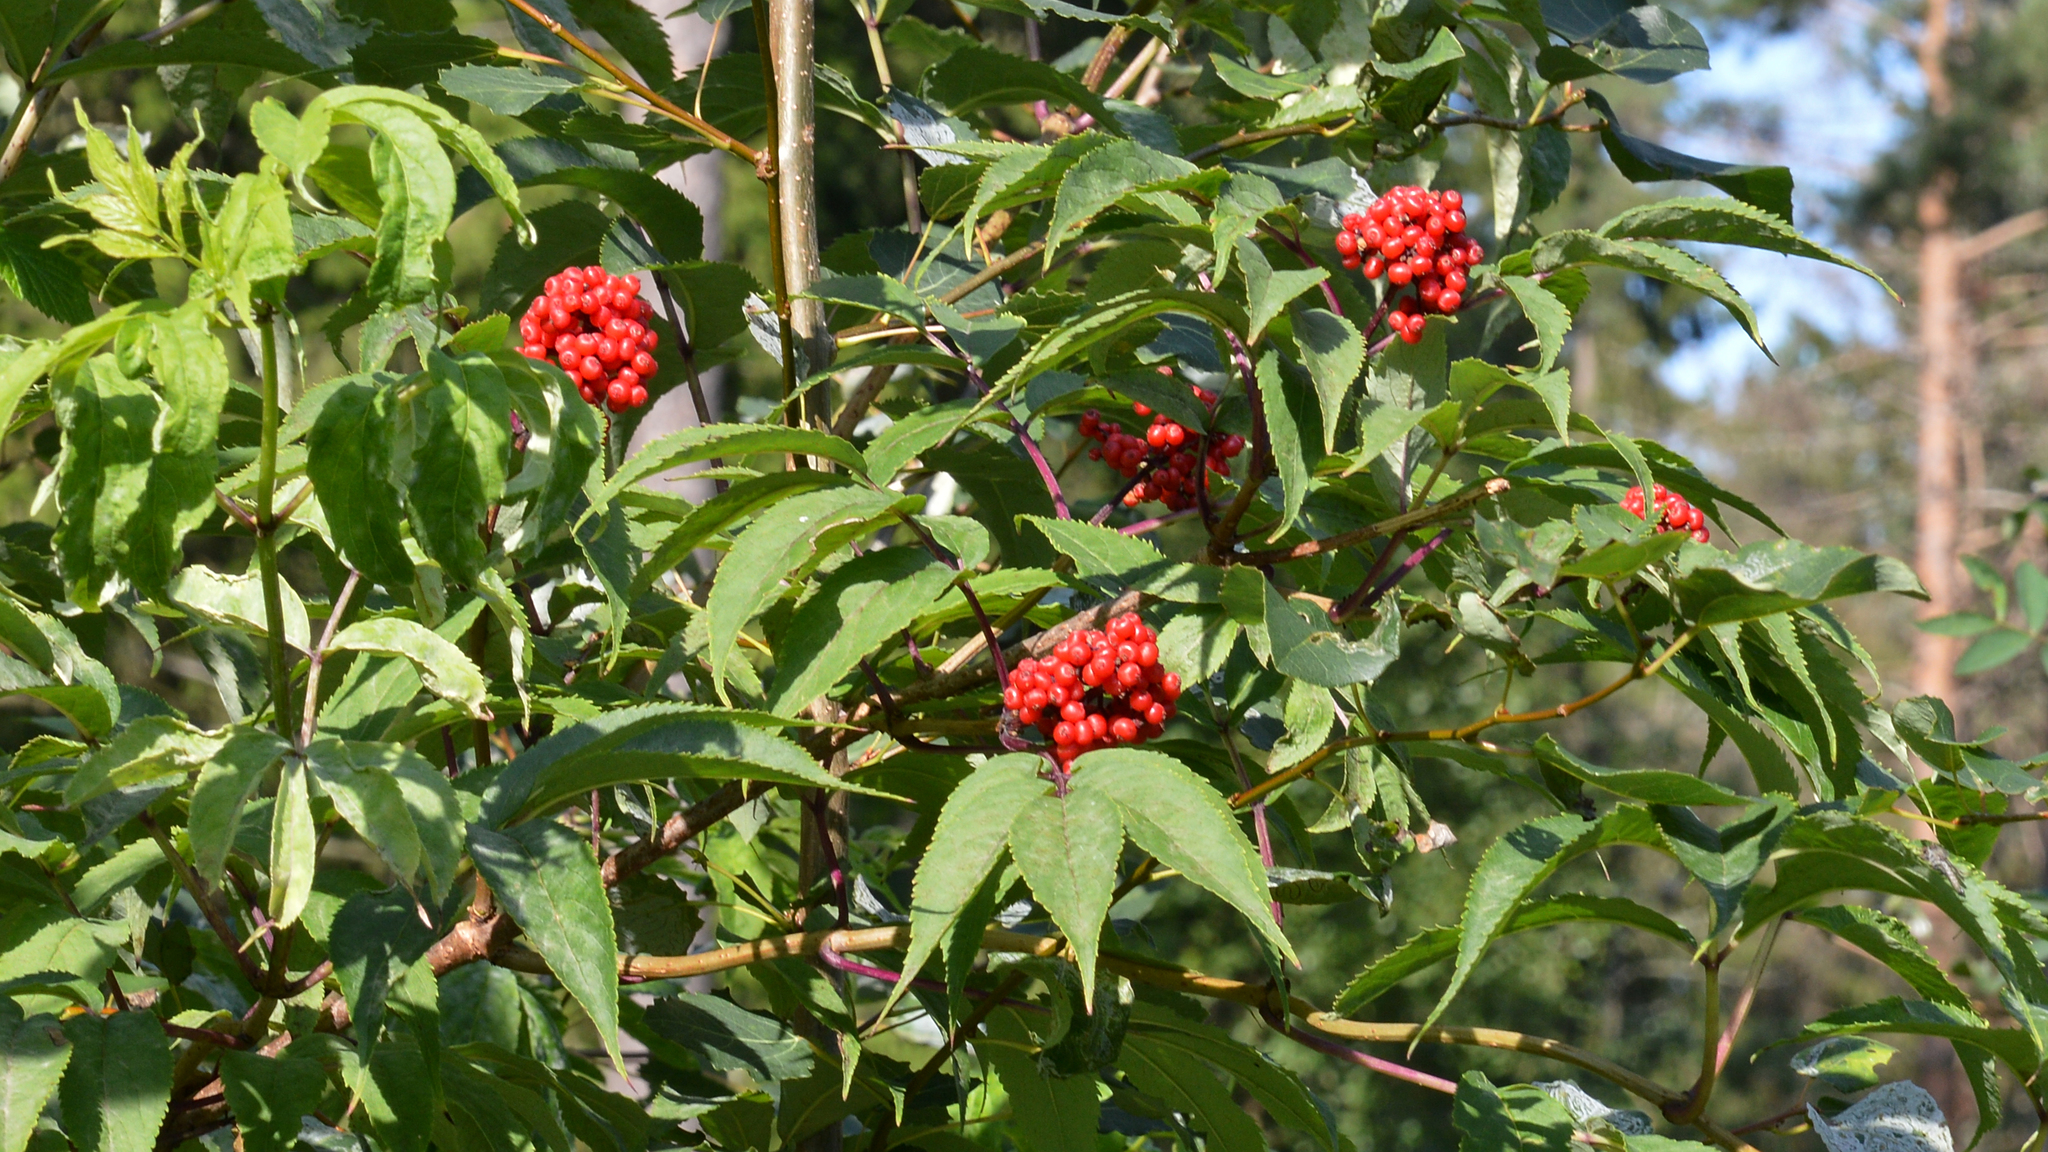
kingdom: Plantae
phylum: Tracheophyta
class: Magnoliopsida
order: Dipsacales
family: Viburnaceae
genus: Sambucus
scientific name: Sambucus racemosa
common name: Red-berried elder
